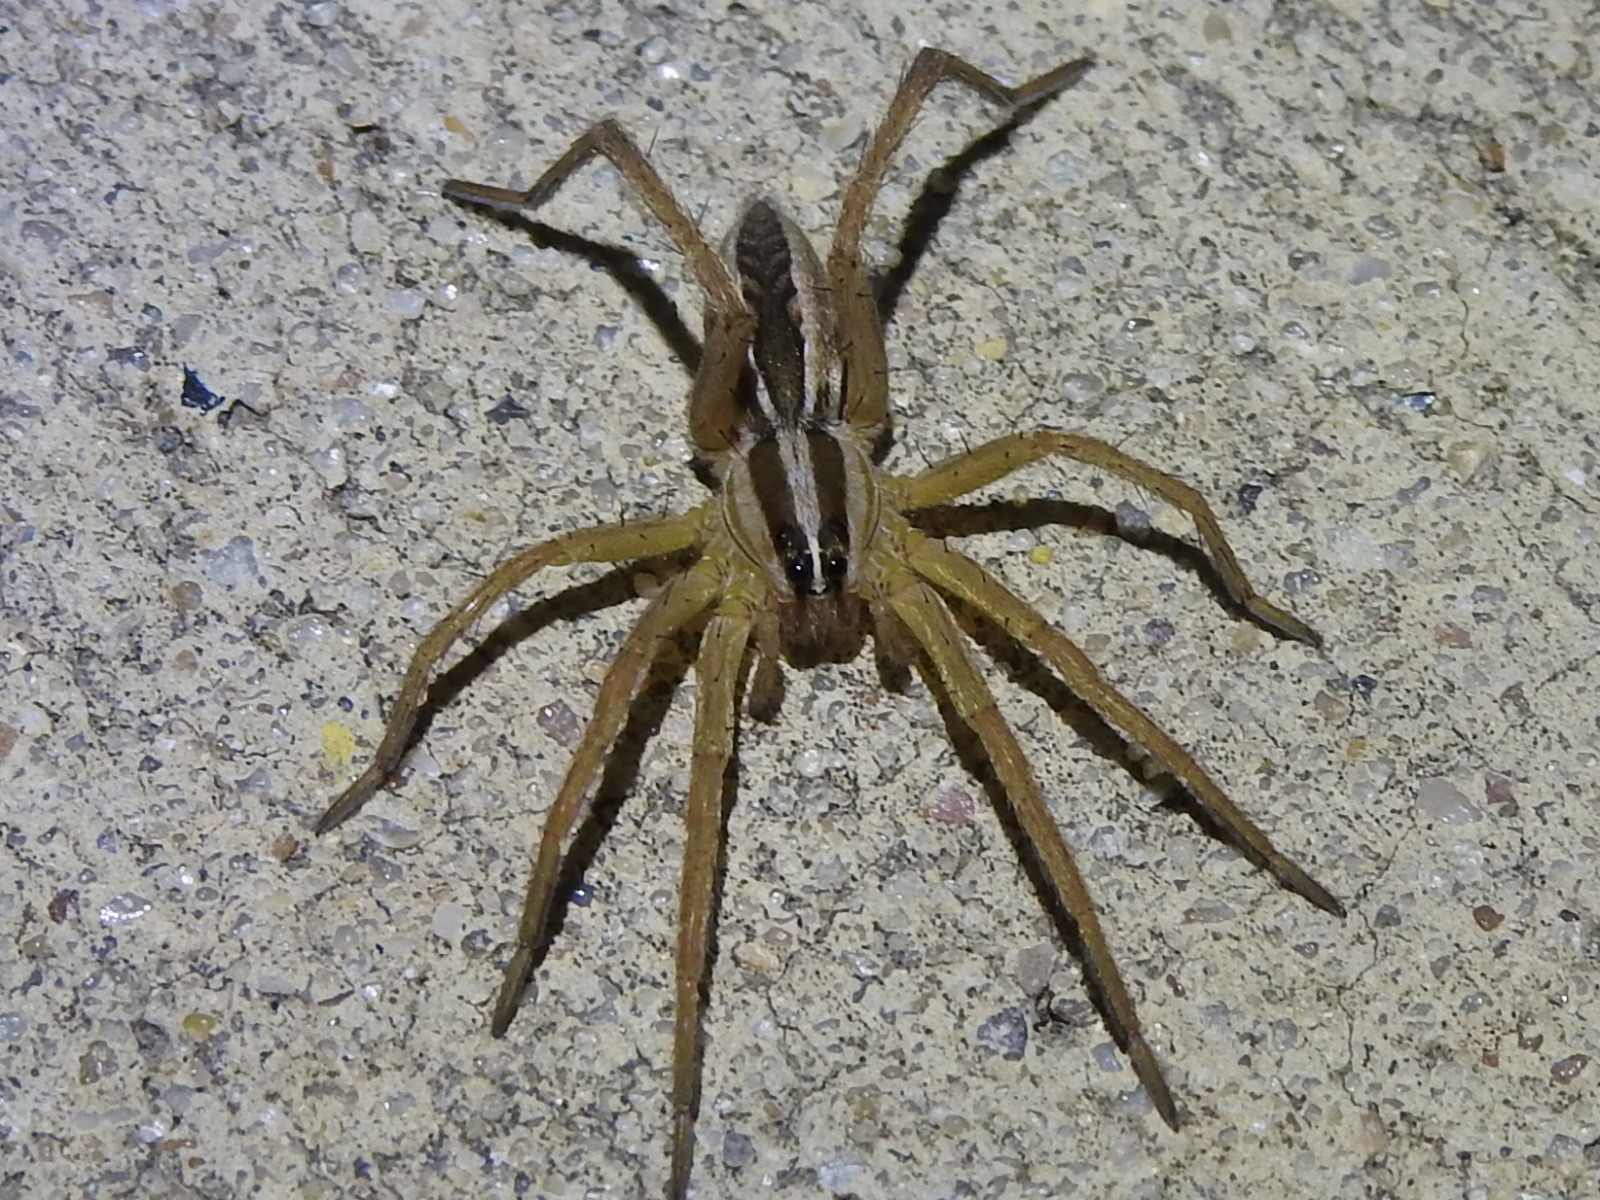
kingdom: Animalia
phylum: Arthropoda
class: Arachnida
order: Araneae
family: Lycosidae
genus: Rabidosa
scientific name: Rabidosa rabida
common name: Rabid wolf spider
